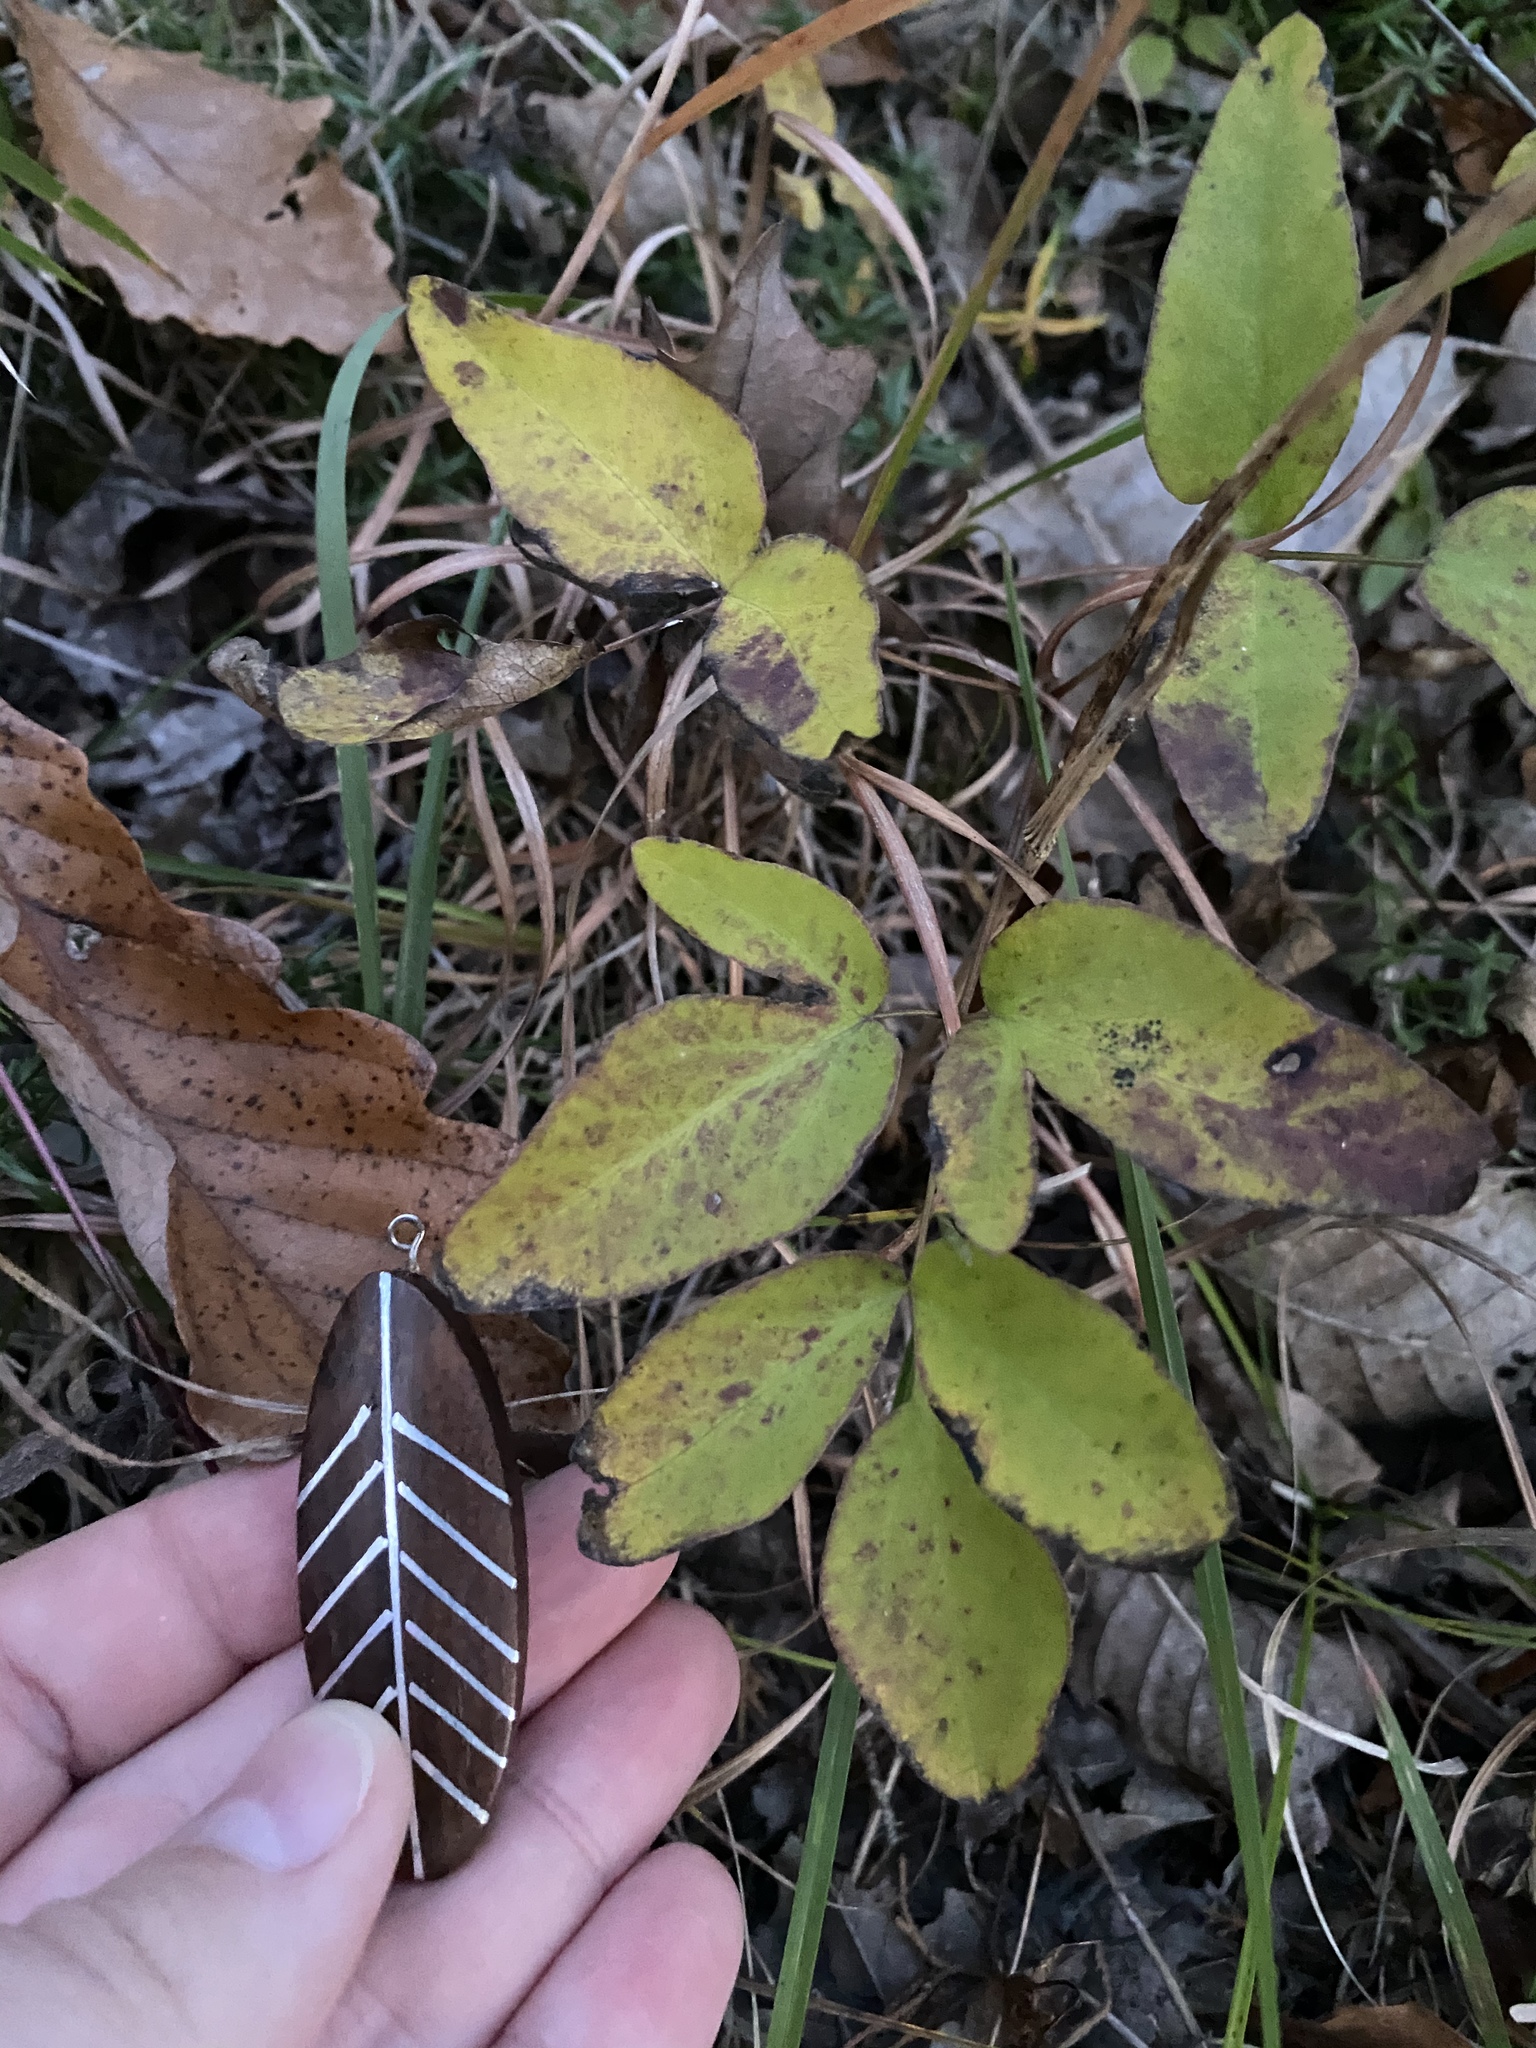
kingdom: Plantae
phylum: Tracheophyta
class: Magnoliopsida
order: Apiales
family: Apiaceae
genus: Taenidia
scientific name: Taenidia integerrima
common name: Golden alexander
